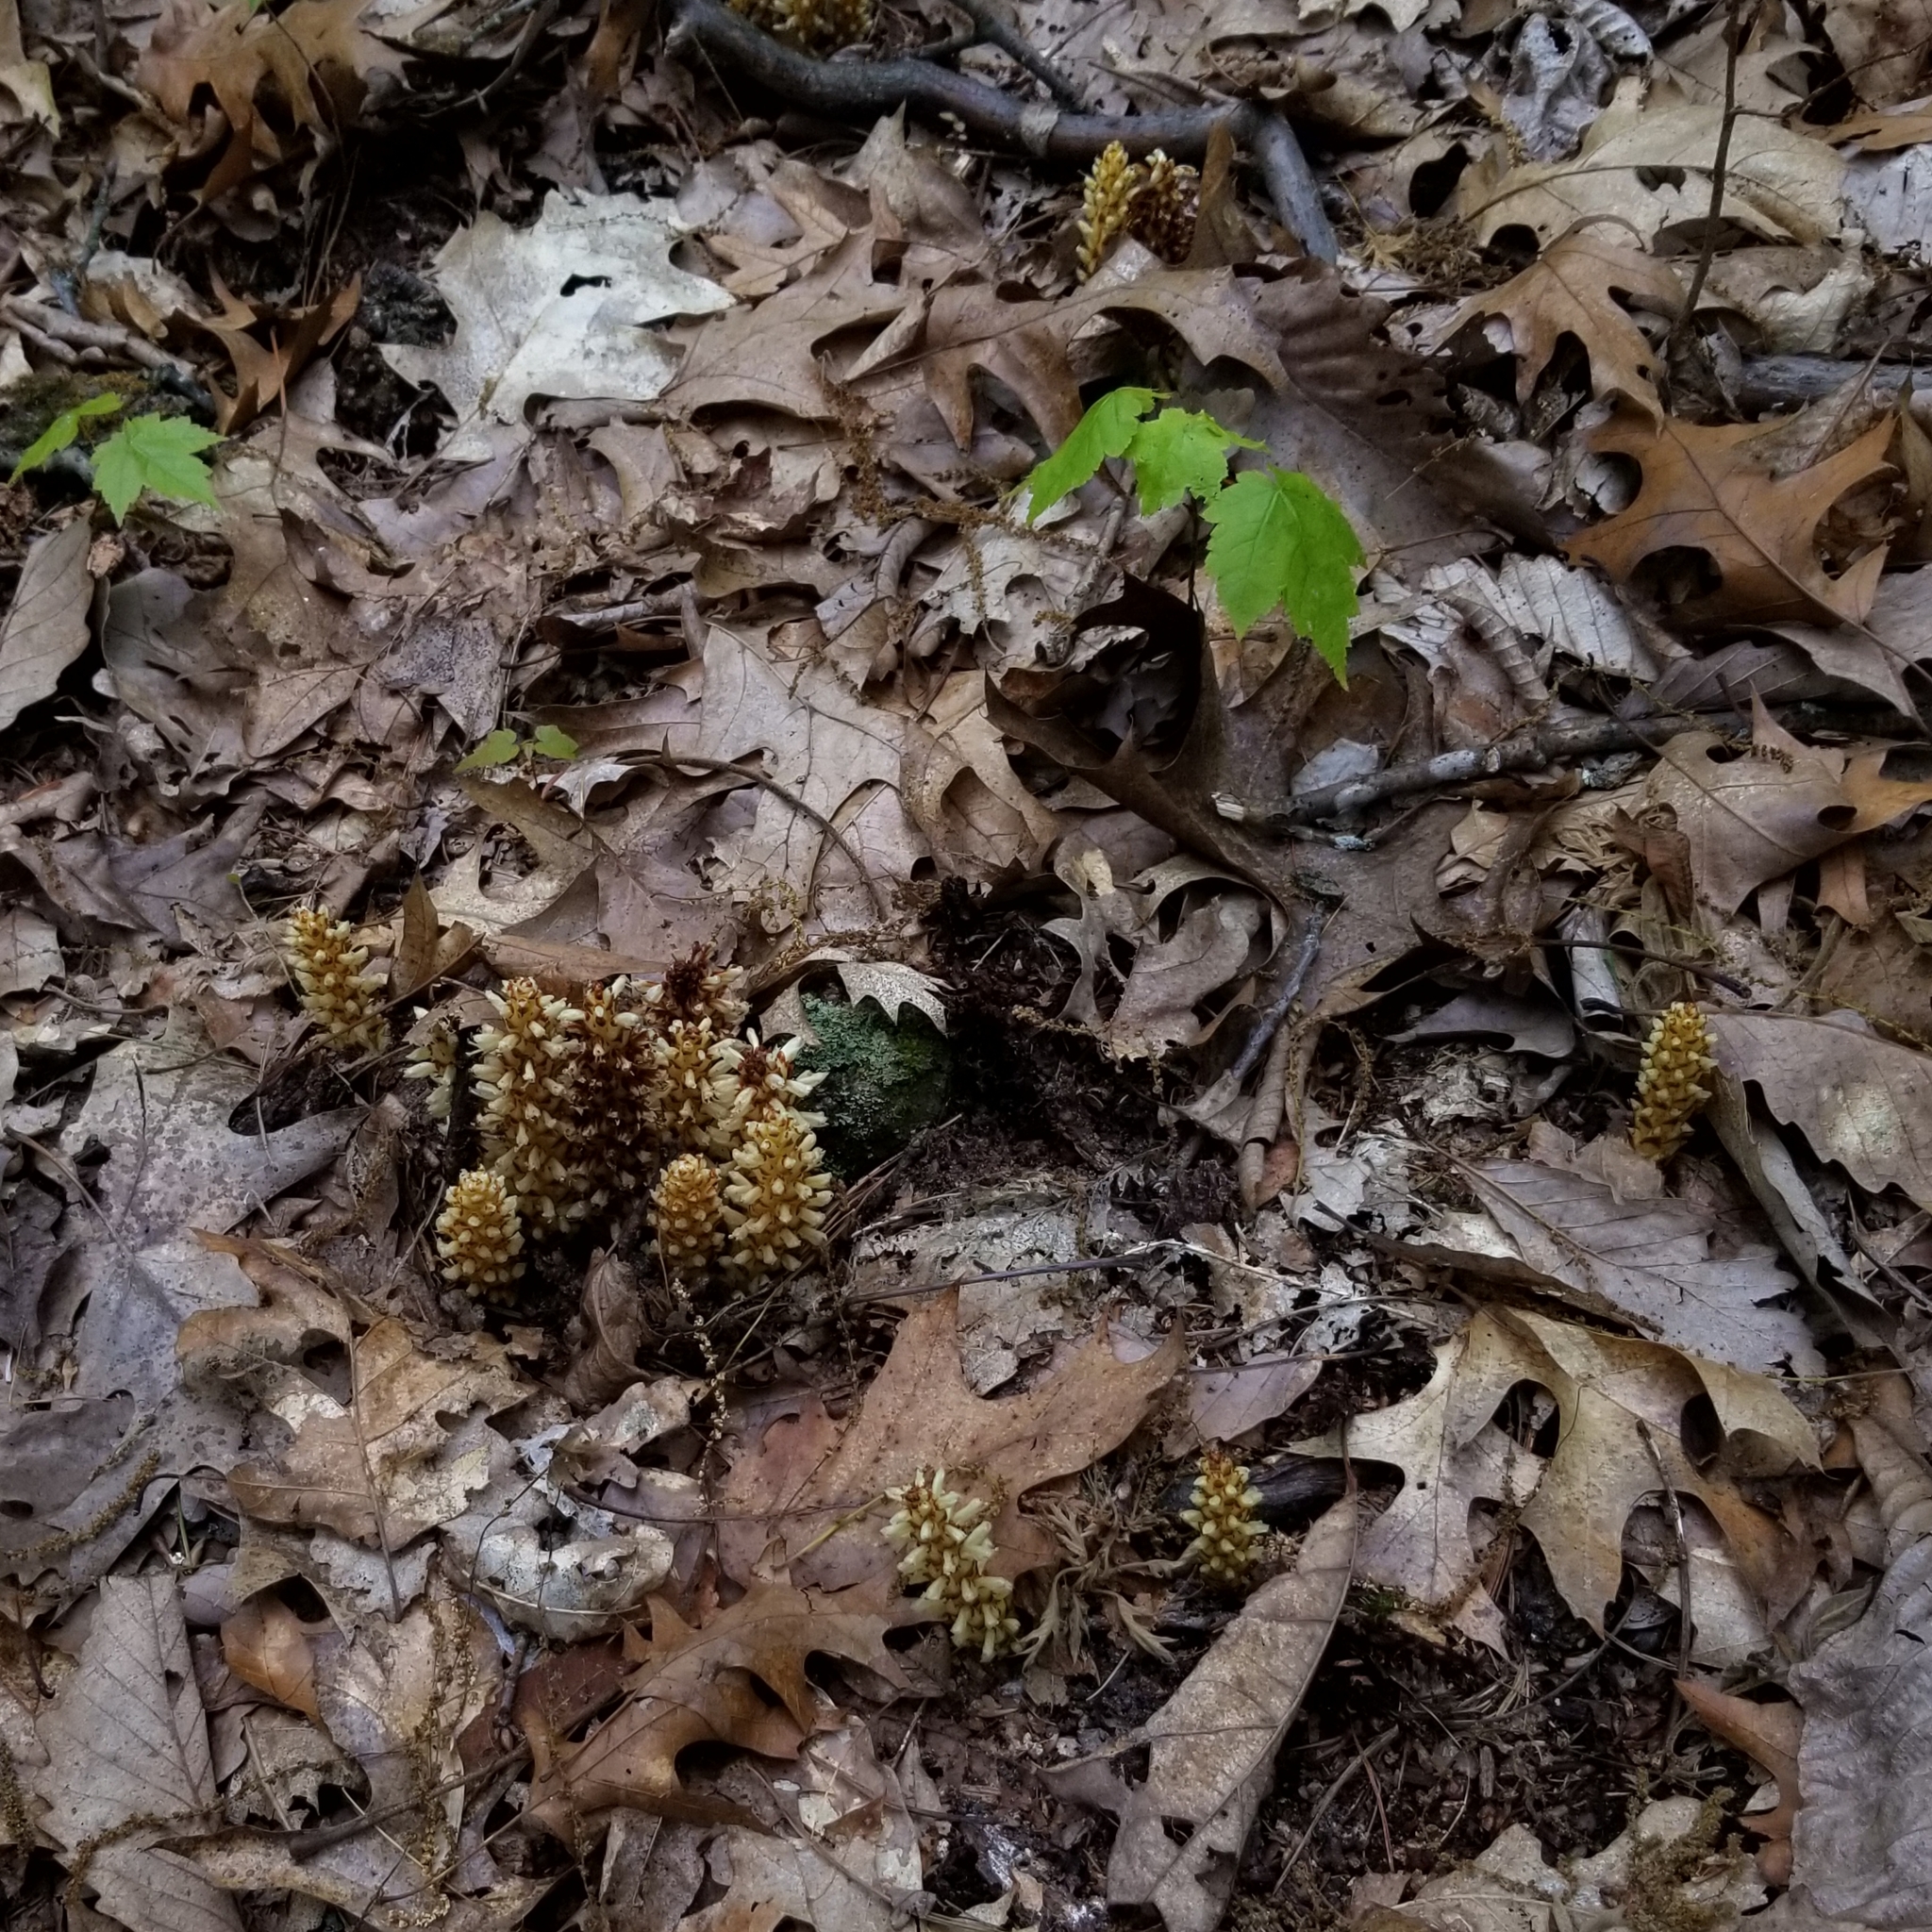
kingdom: Plantae
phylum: Tracheophyta
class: Magnoliopsida
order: Lamiales
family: Orobanchaceae
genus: Conopholis
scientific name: Conopholis americana
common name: American cancer-root
